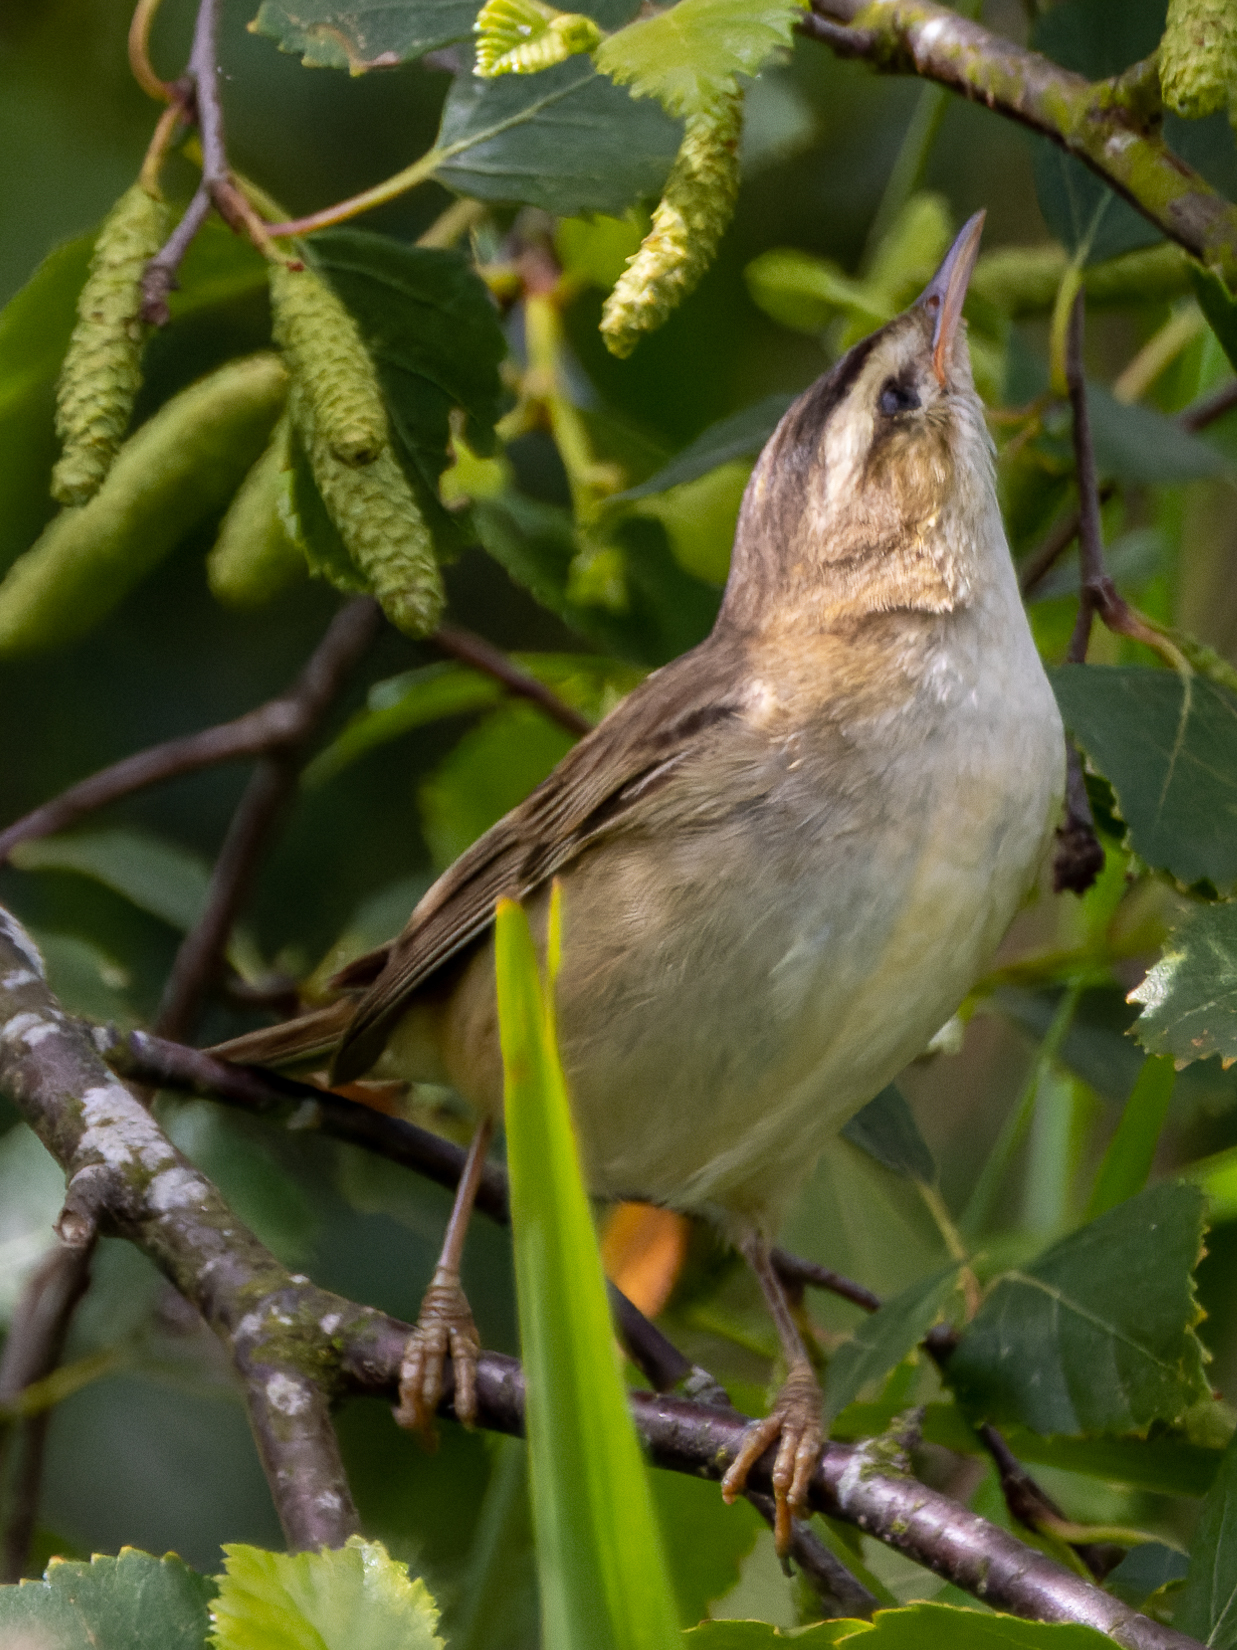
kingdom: Animalia
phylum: Chordata
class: Aves
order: Passeriformes
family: Acrocephalidae
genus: Acrocephalus
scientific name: Acrocephalus schoenobaenus
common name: Sedge warbler
